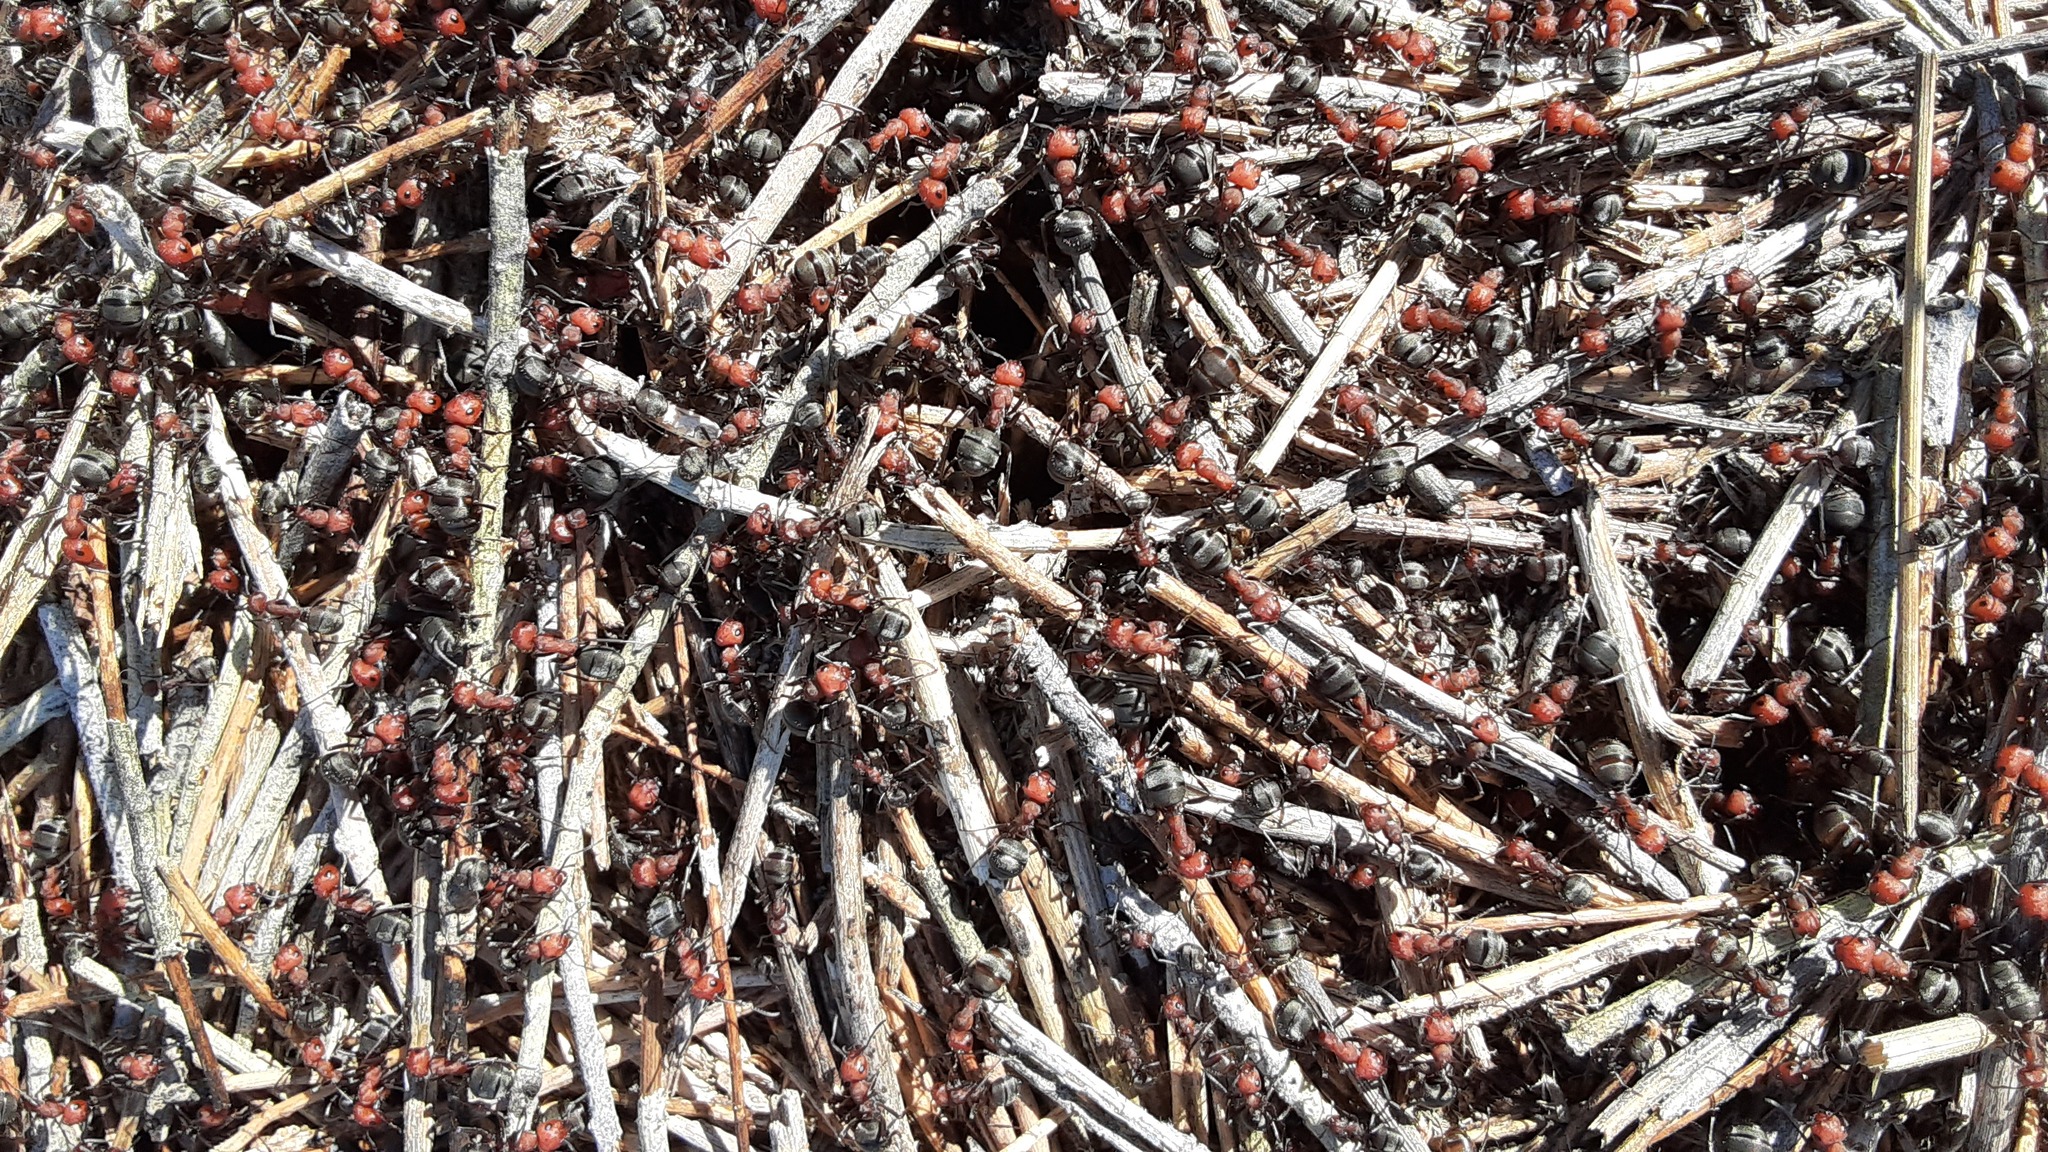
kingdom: Animalia
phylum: Arthropoda
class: Insecta
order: Hymenoptera
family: Formicidae
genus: Formica
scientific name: Formica obscuripes
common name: Western thatching ant
